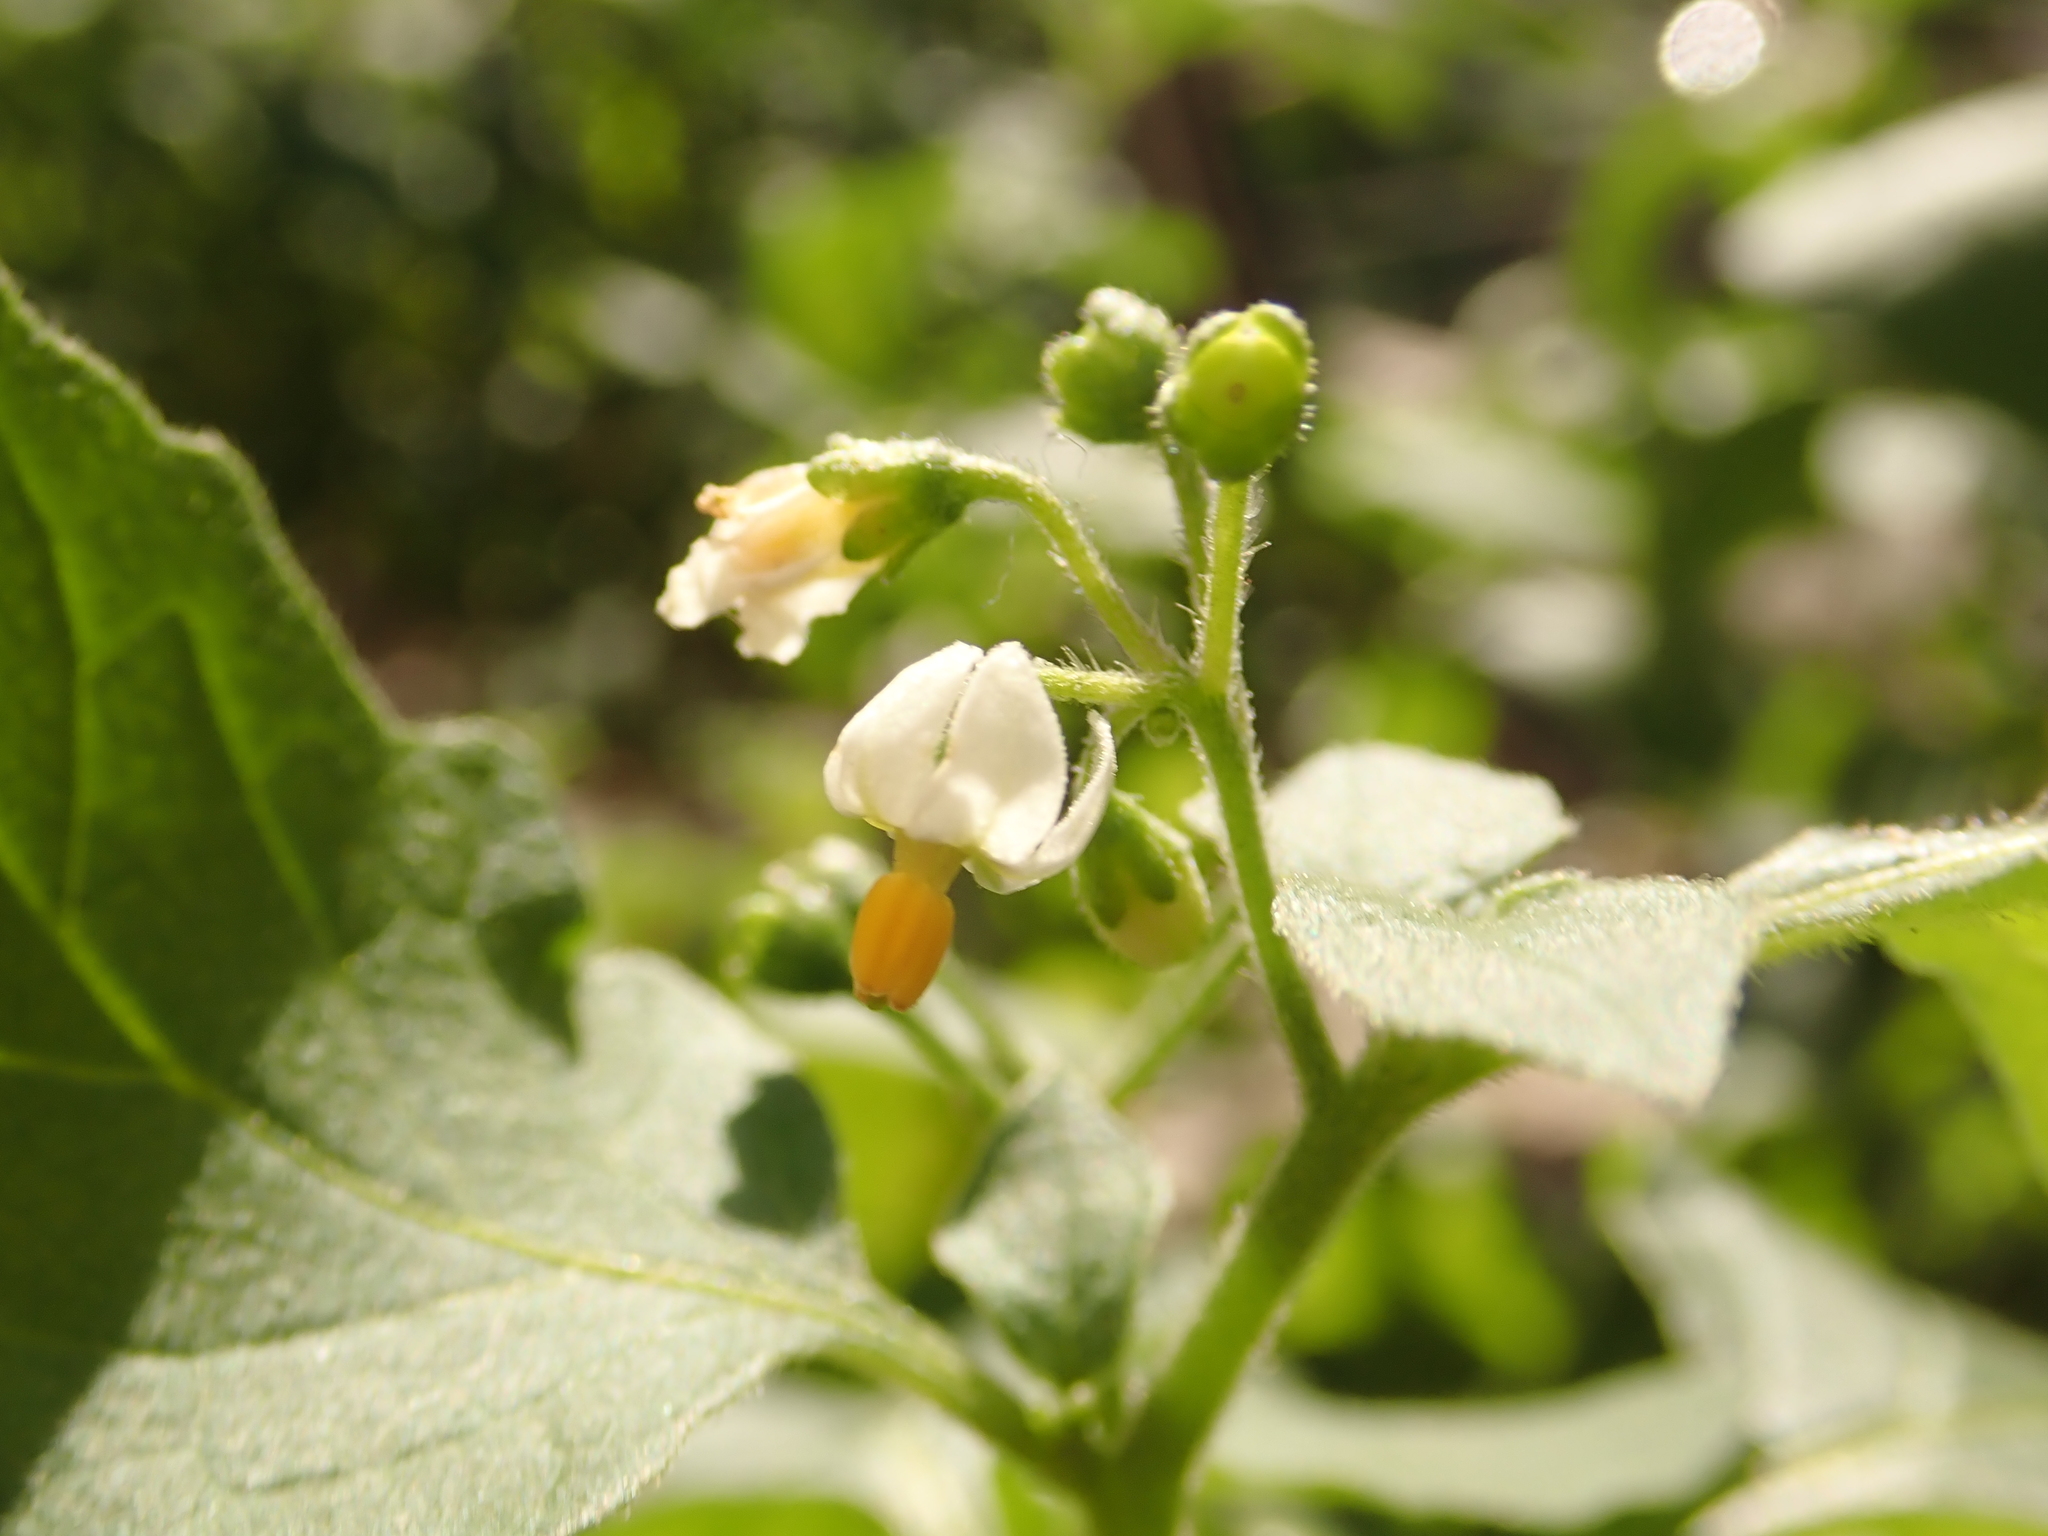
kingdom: Plantae
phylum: Tracheophyta
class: Magnoliopsida
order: Solanales
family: Solanaceae
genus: Solanum
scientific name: Solanum nigrum
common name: Black nightshade
